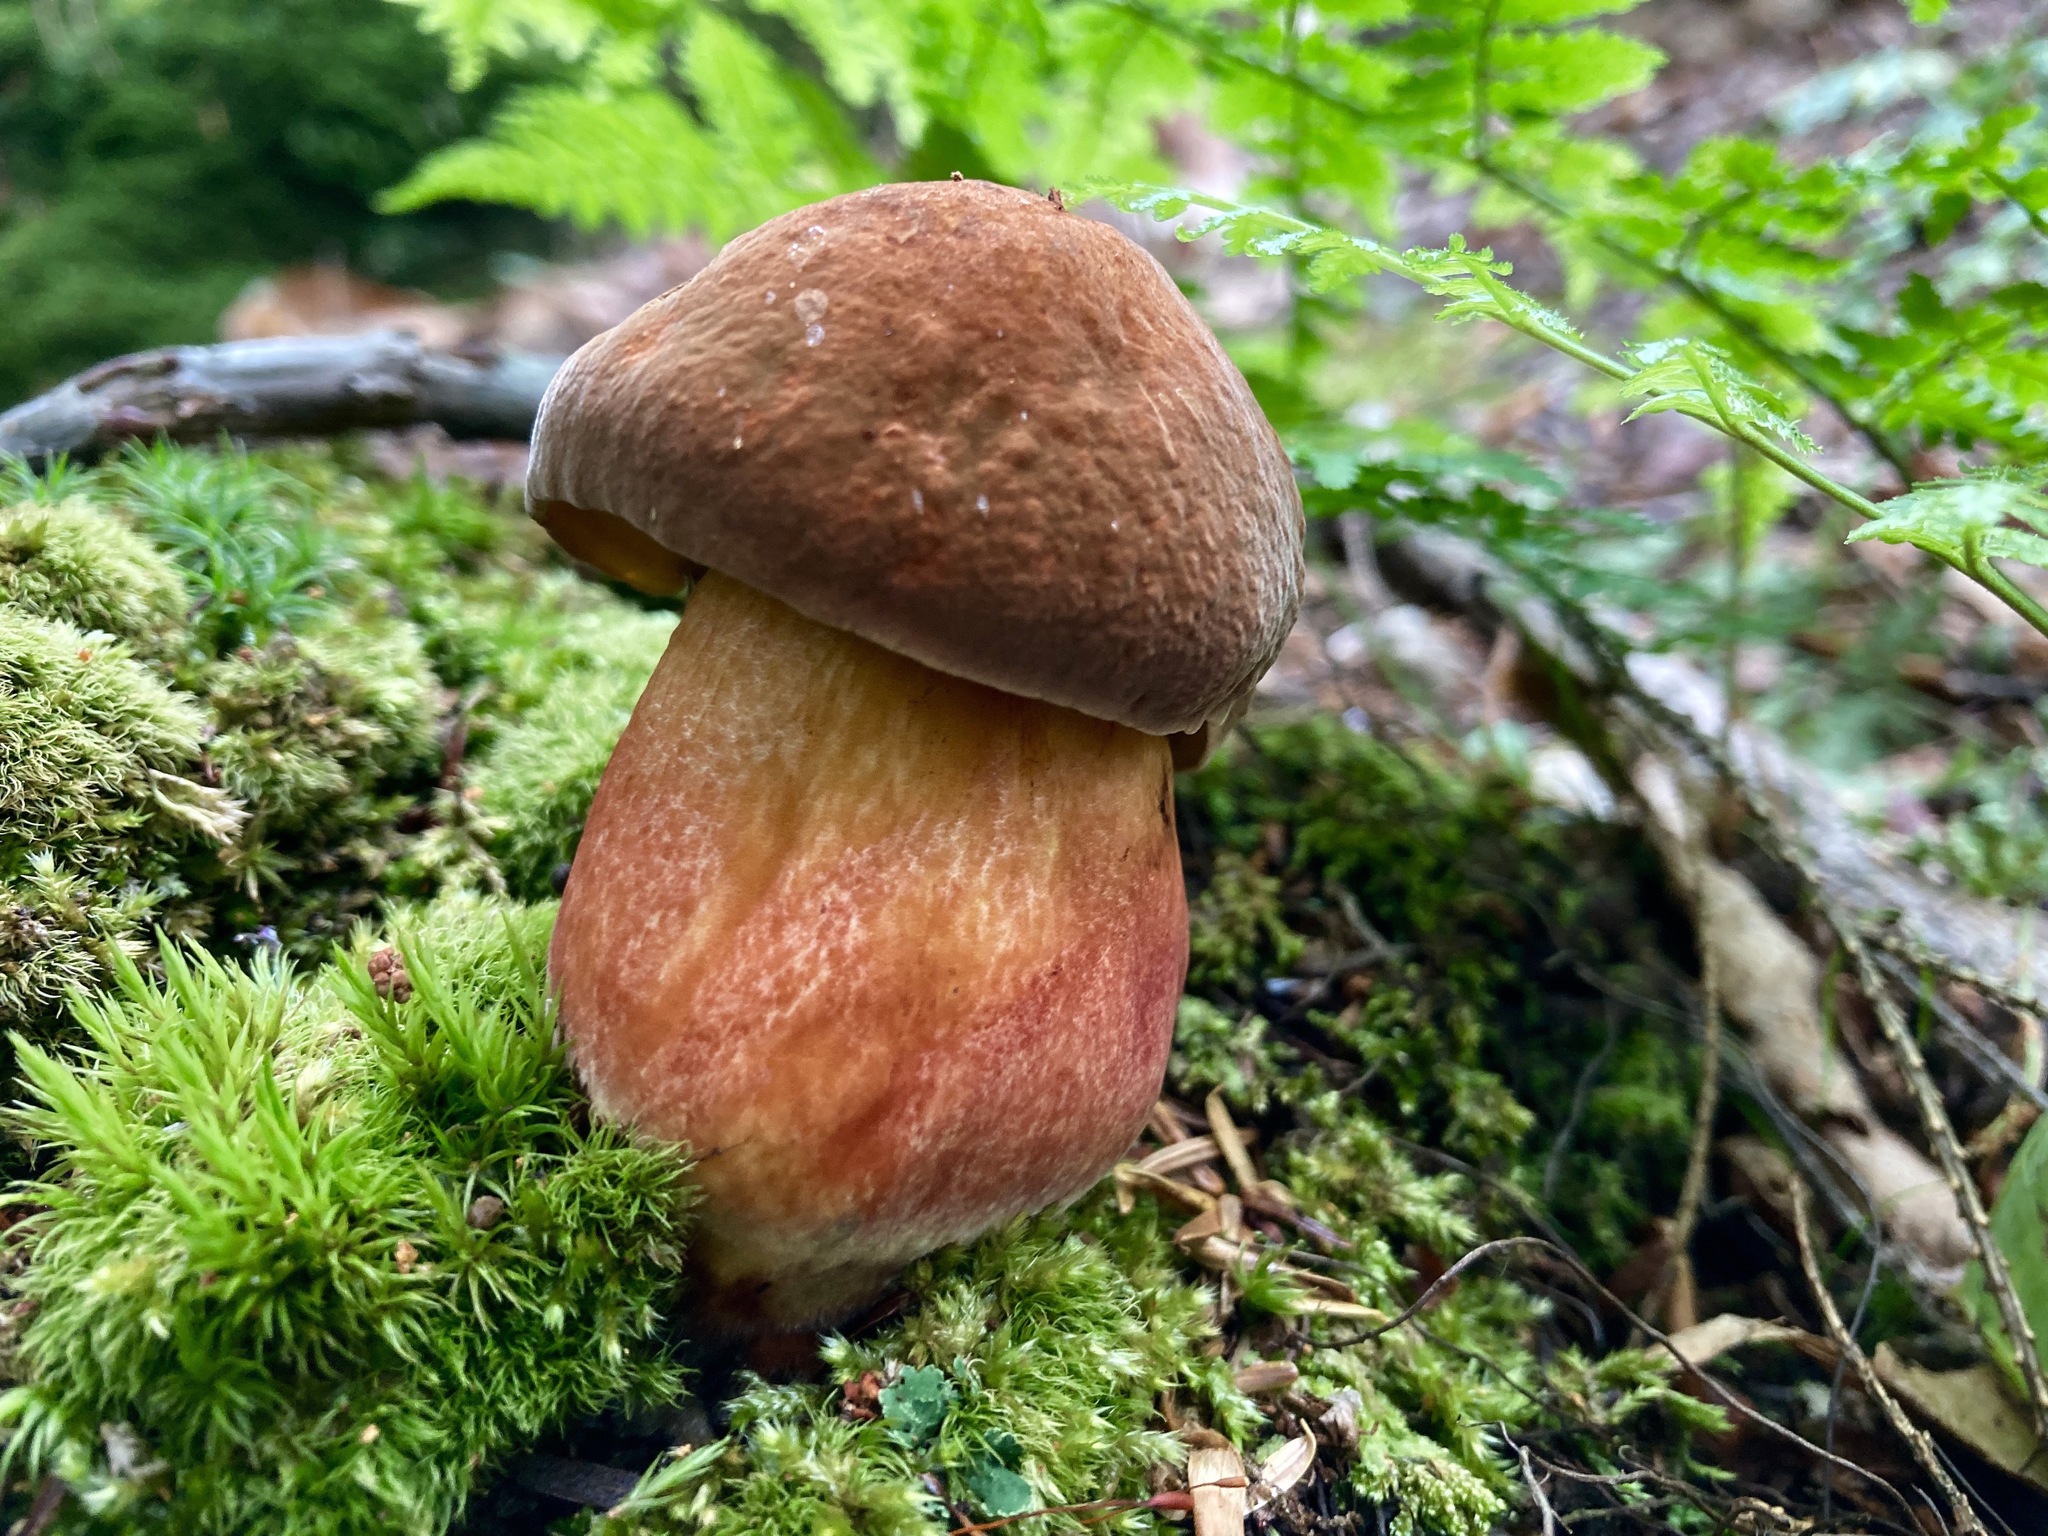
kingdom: Fungi
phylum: Basidiomycota
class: Agaricomycetes
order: Boletales
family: Boletaceae
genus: Boletus
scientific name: Boletus subvelutipes
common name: Red-mouth bolete
